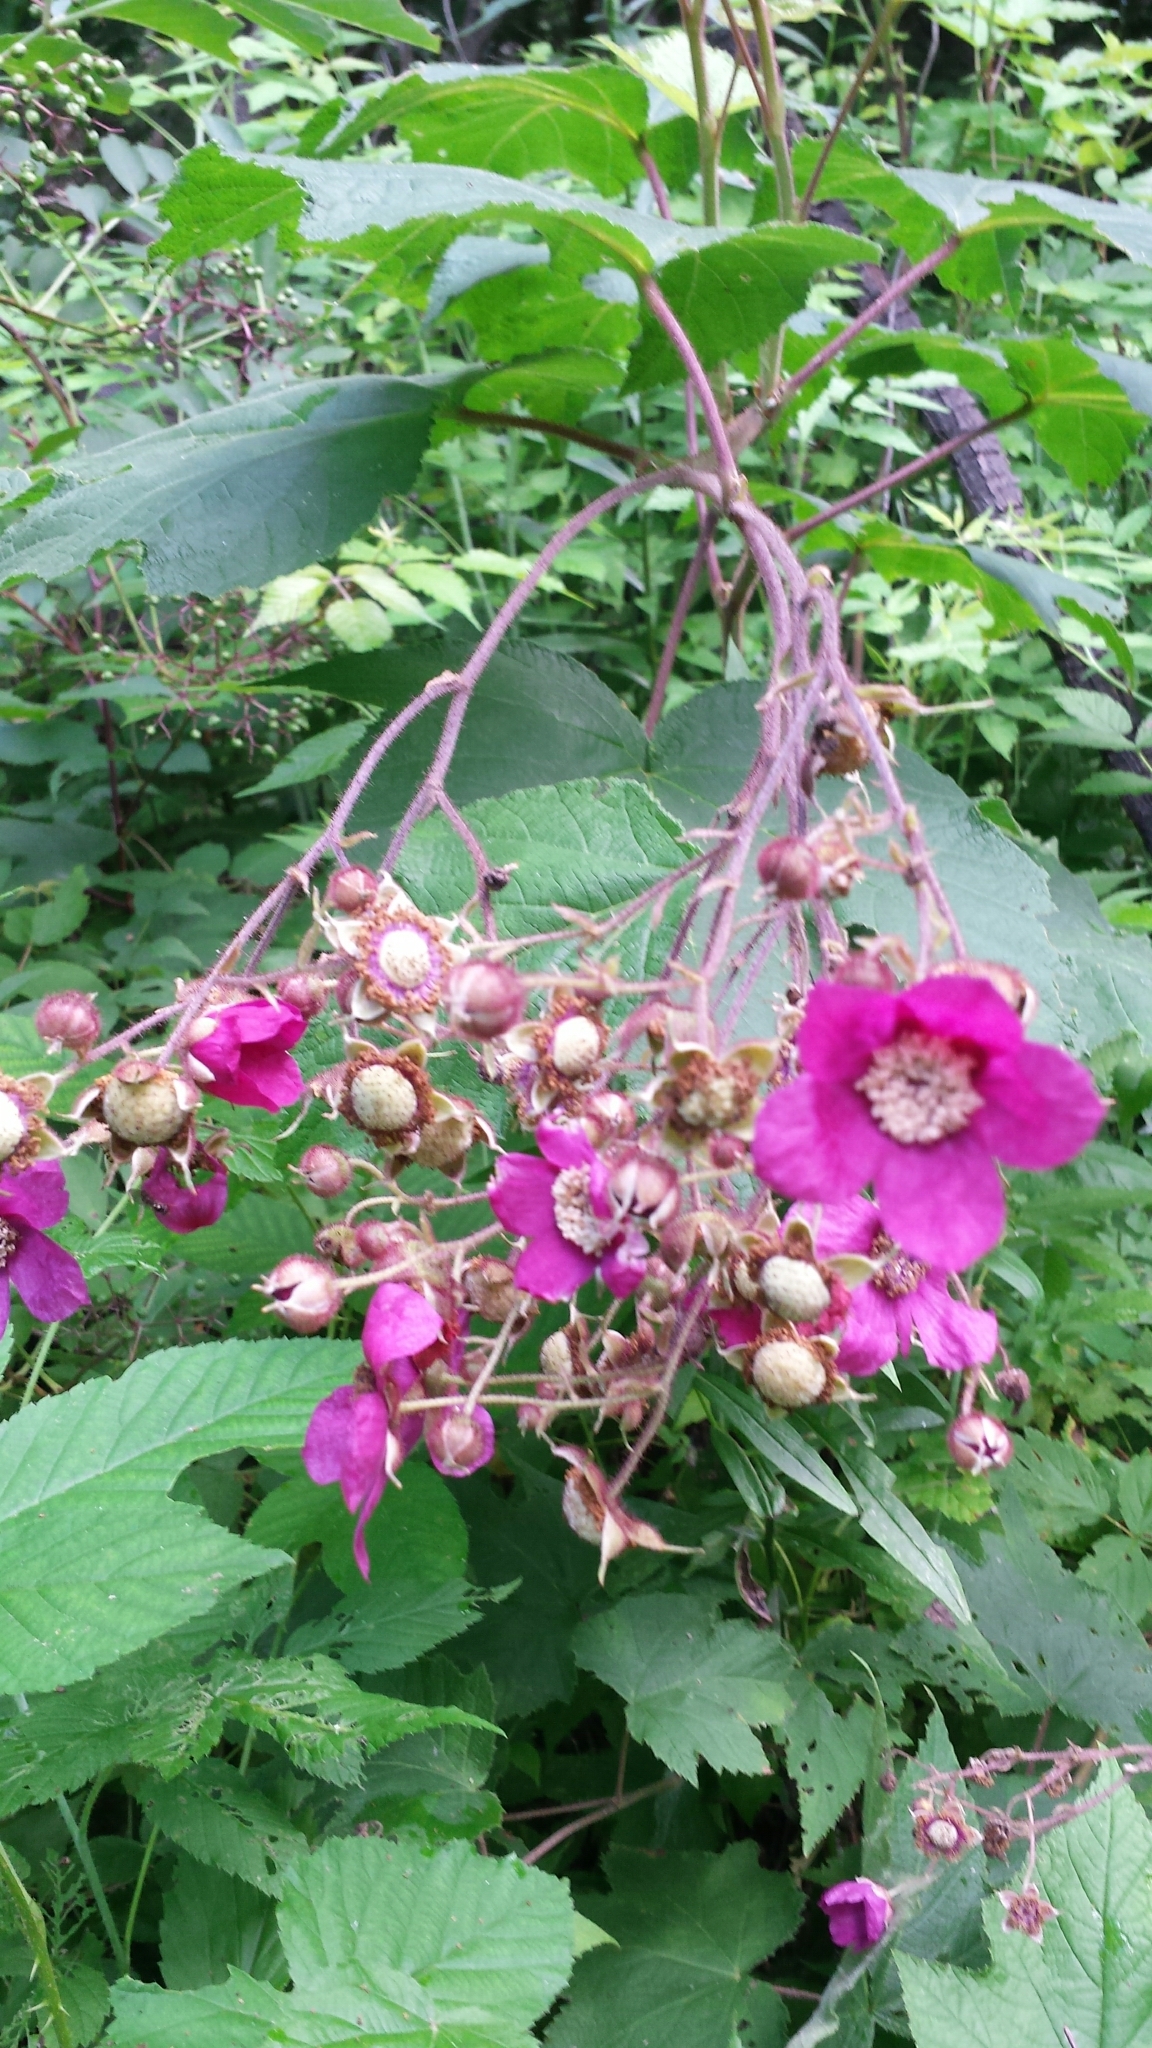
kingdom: Plantae
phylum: Tracheophyta
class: Magnoliopsida
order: Rosales
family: Rosaceae
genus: Rubus
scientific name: Rubus odoratus
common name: Purple-flowered raspberry
